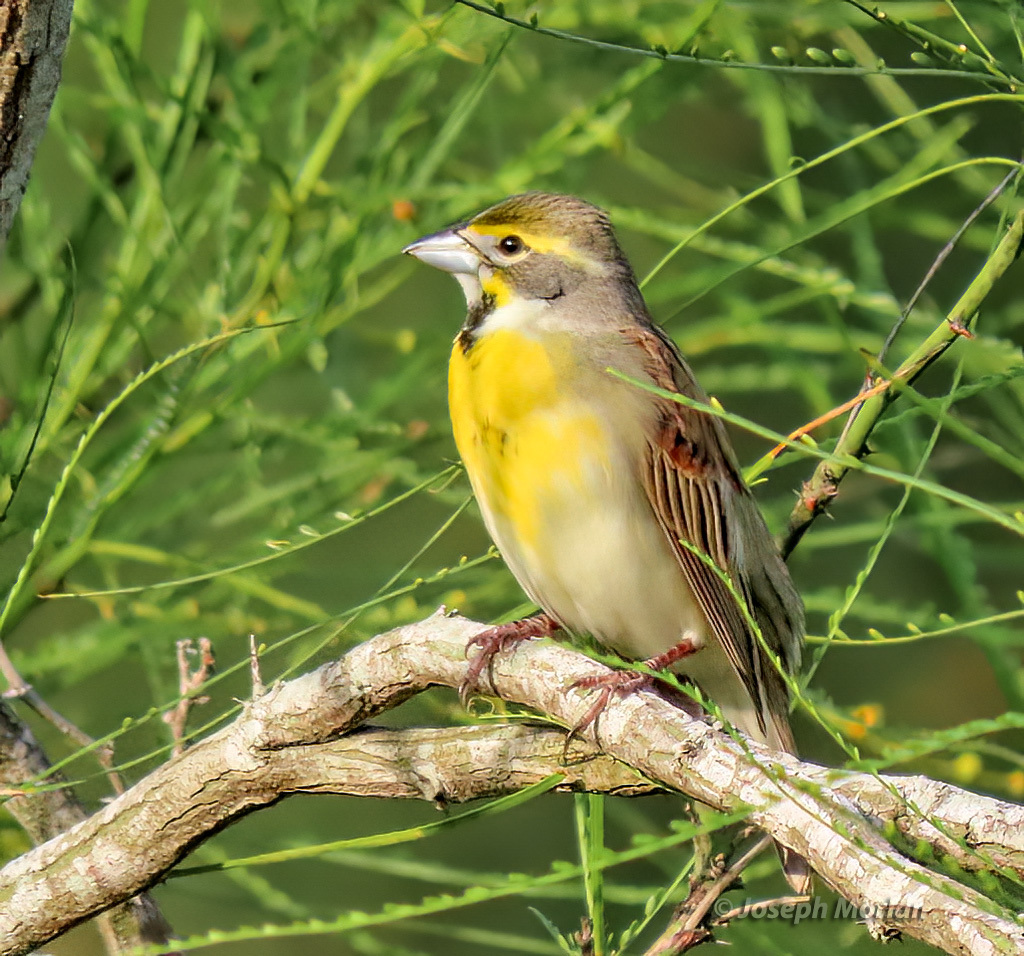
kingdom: Animalia
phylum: Chordata
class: Aves
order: Passeriformes
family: Cardinalidae
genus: Spiza
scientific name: Spiza americana
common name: Dickcissel
